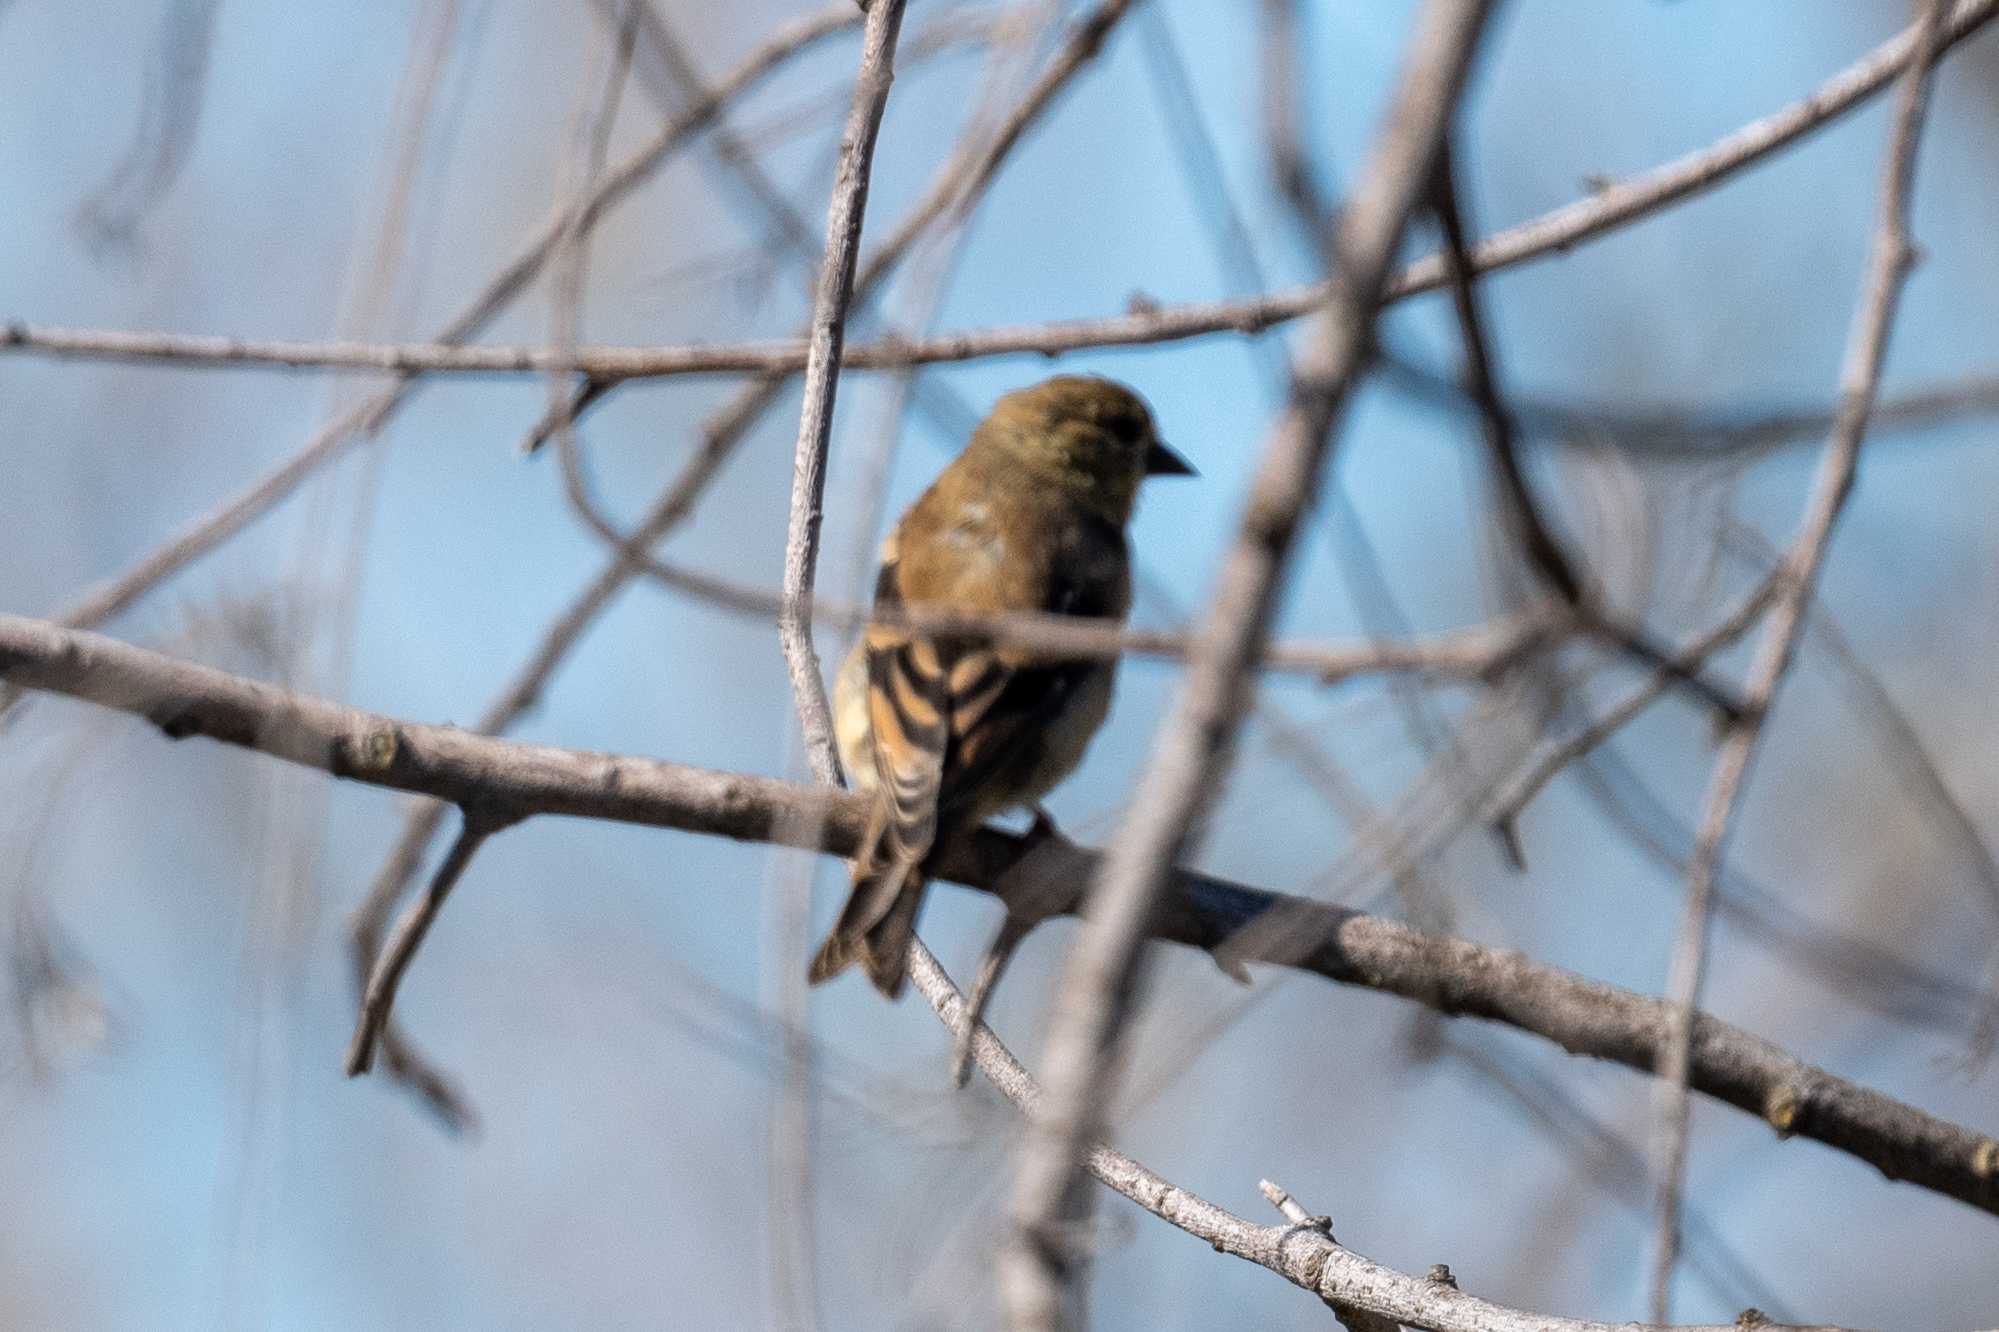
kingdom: Animalia
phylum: Chordata
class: Aves
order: Passeriformes
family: Fringillidae
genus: Spinus
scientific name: Spinus tristis
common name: American goldfinch
